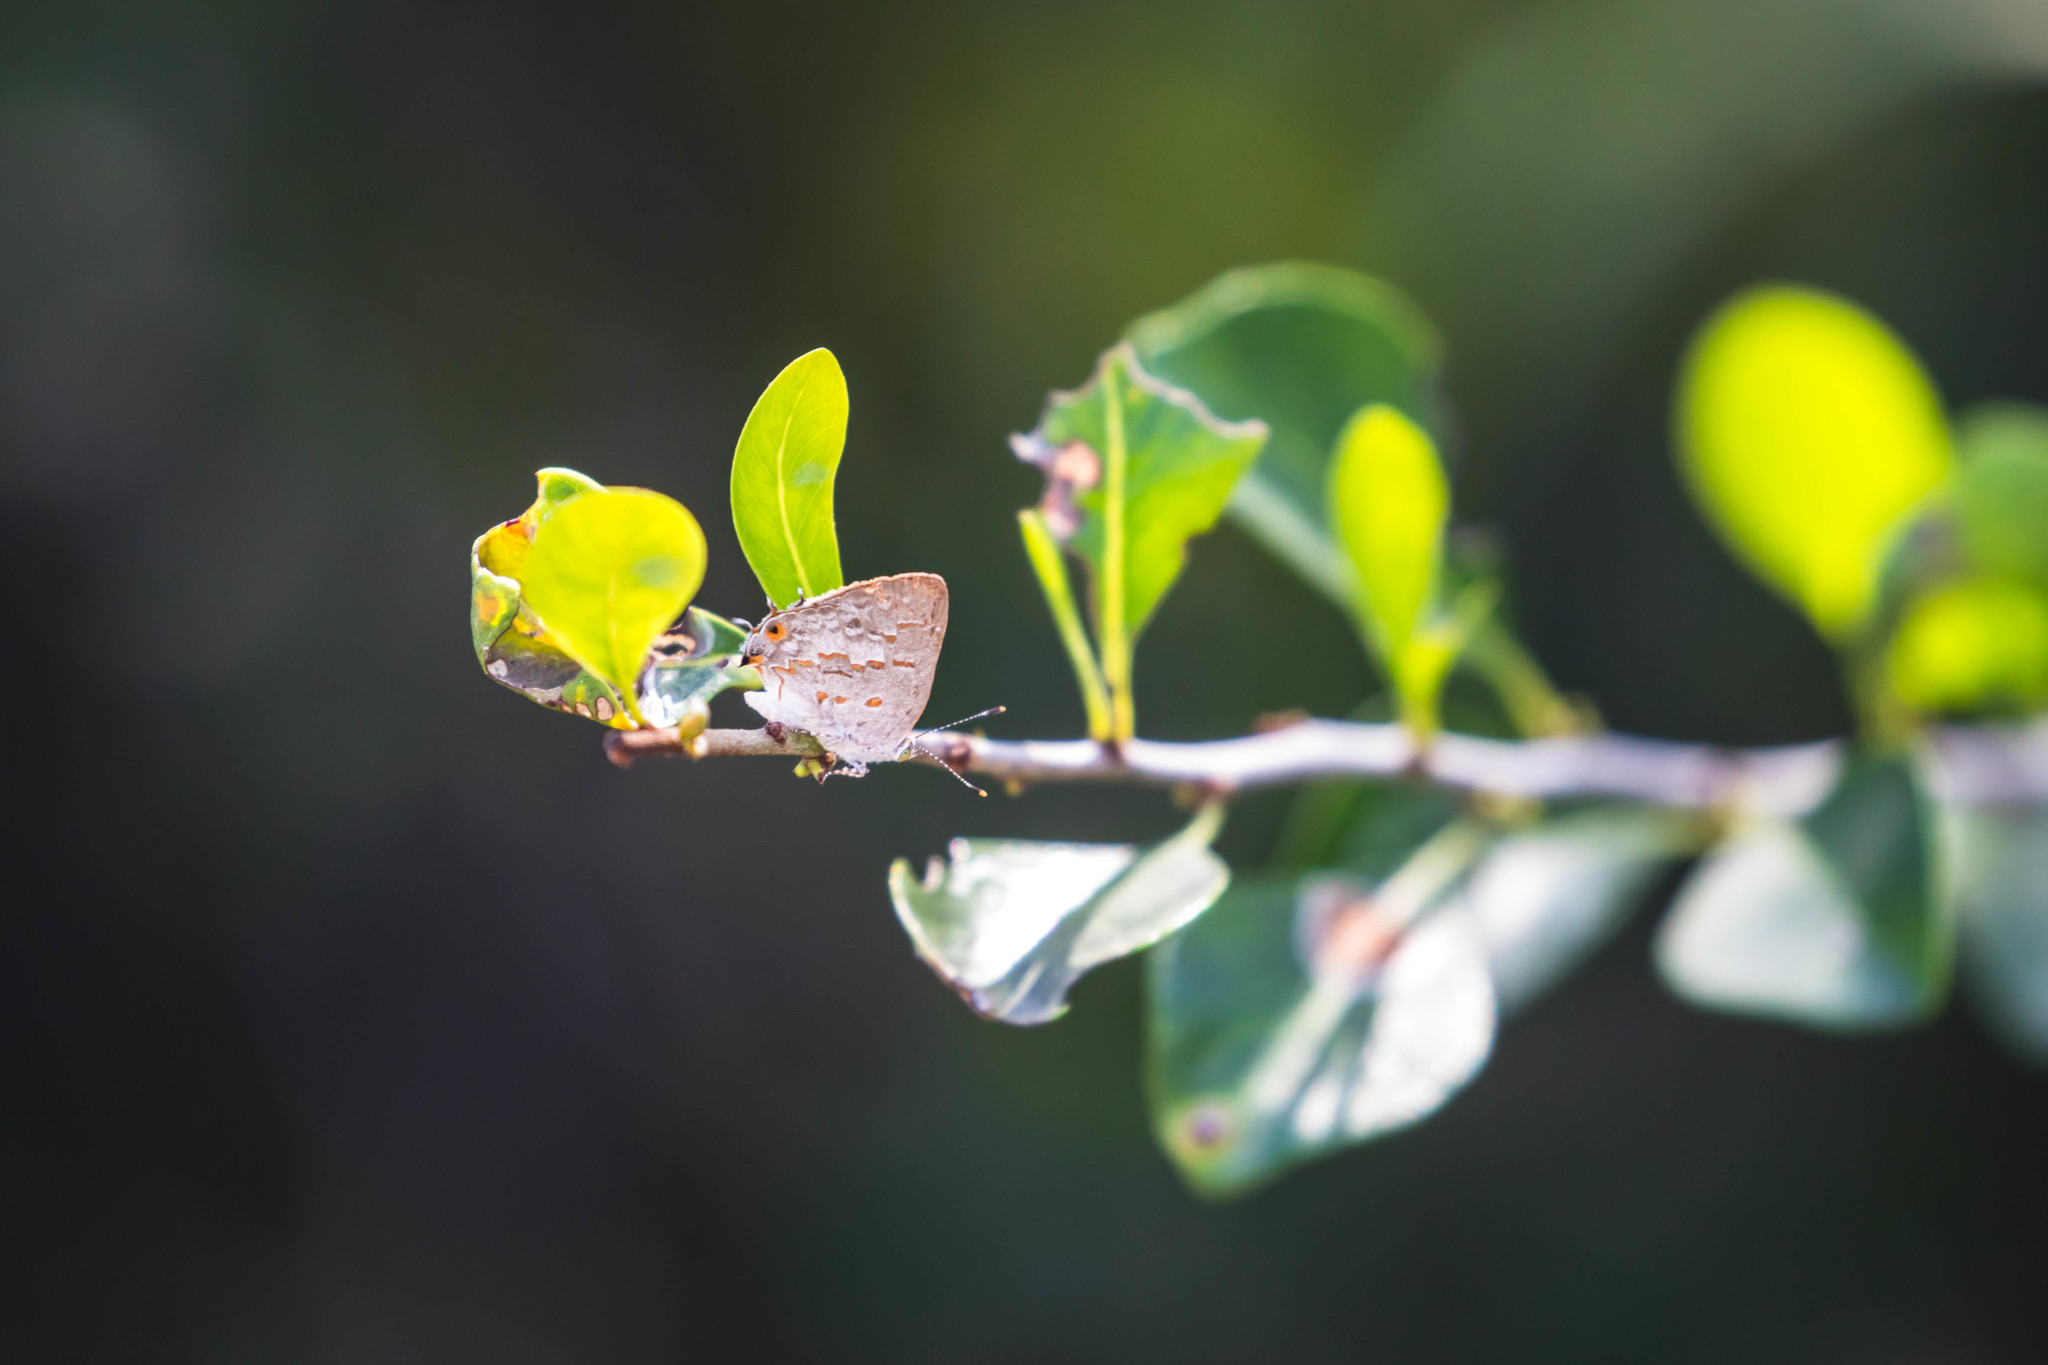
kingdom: Animalia
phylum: Arthropoda
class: Insecta
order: Lepidoptera
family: Lycaenidae
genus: Ministrymon
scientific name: Ministrymon clytie
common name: Clytie ministreak
